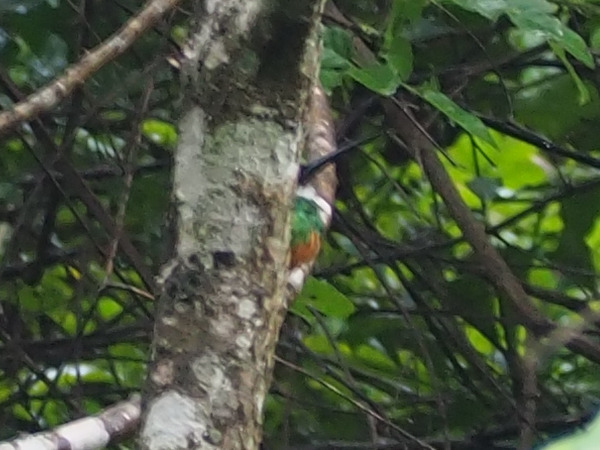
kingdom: Animalia
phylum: Chordata
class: Aves
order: Piciformes
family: Galbulidae
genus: Galbula
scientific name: Galbula ruficauda
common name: Rufous-tailed jacamar
